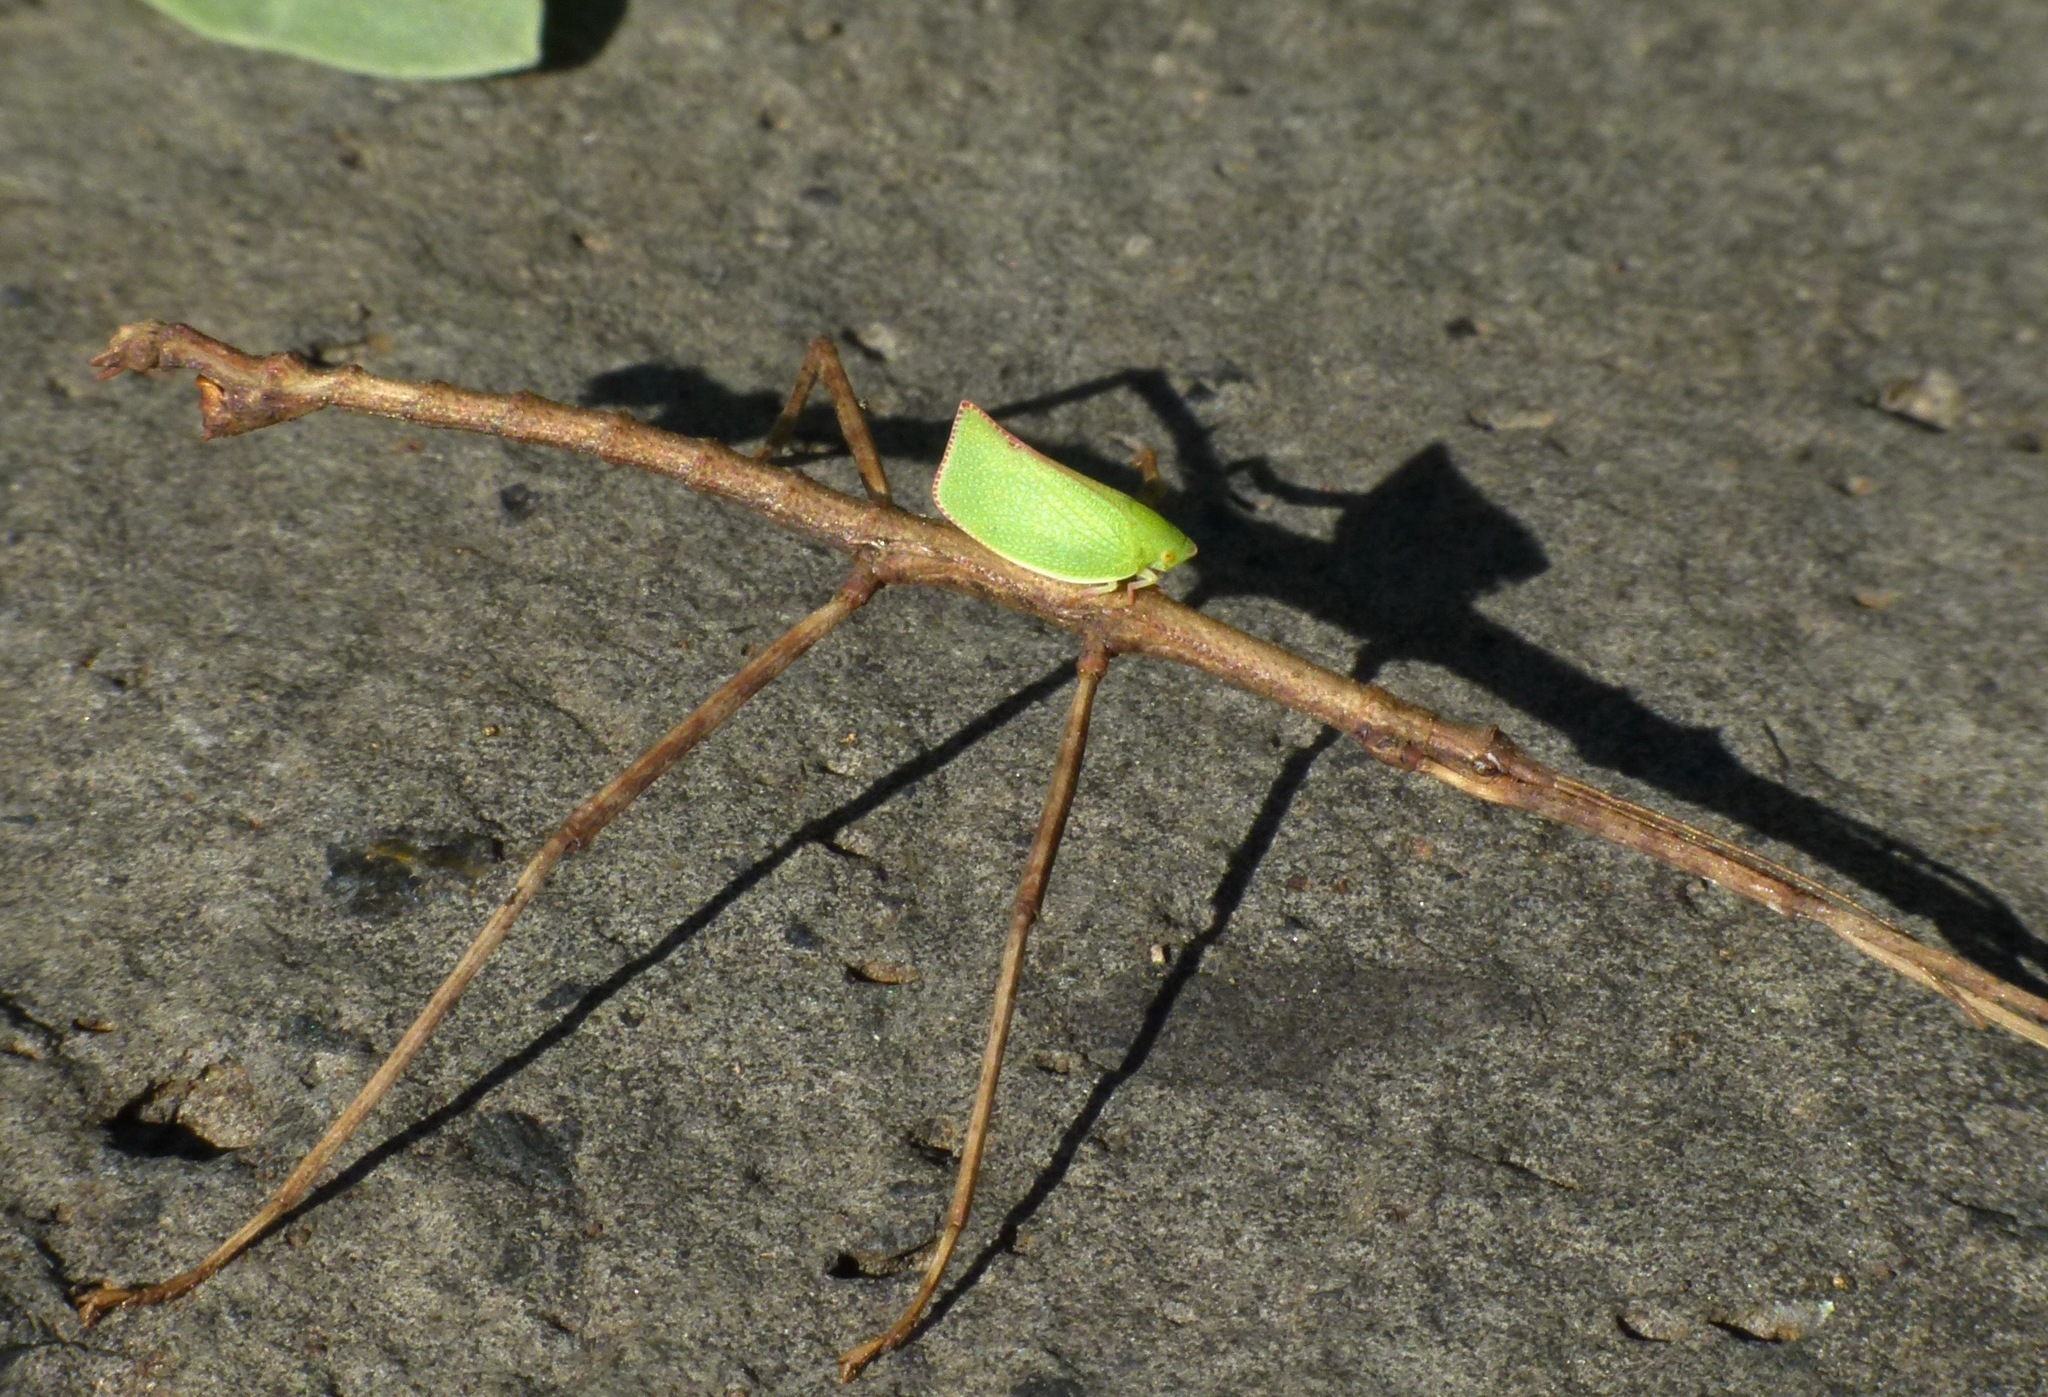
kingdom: Animalia
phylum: Arthropoda
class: Insecta
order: Hemiptera
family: Flatidae
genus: Siphanta
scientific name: Siphanta acuta
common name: Torpedo bug
